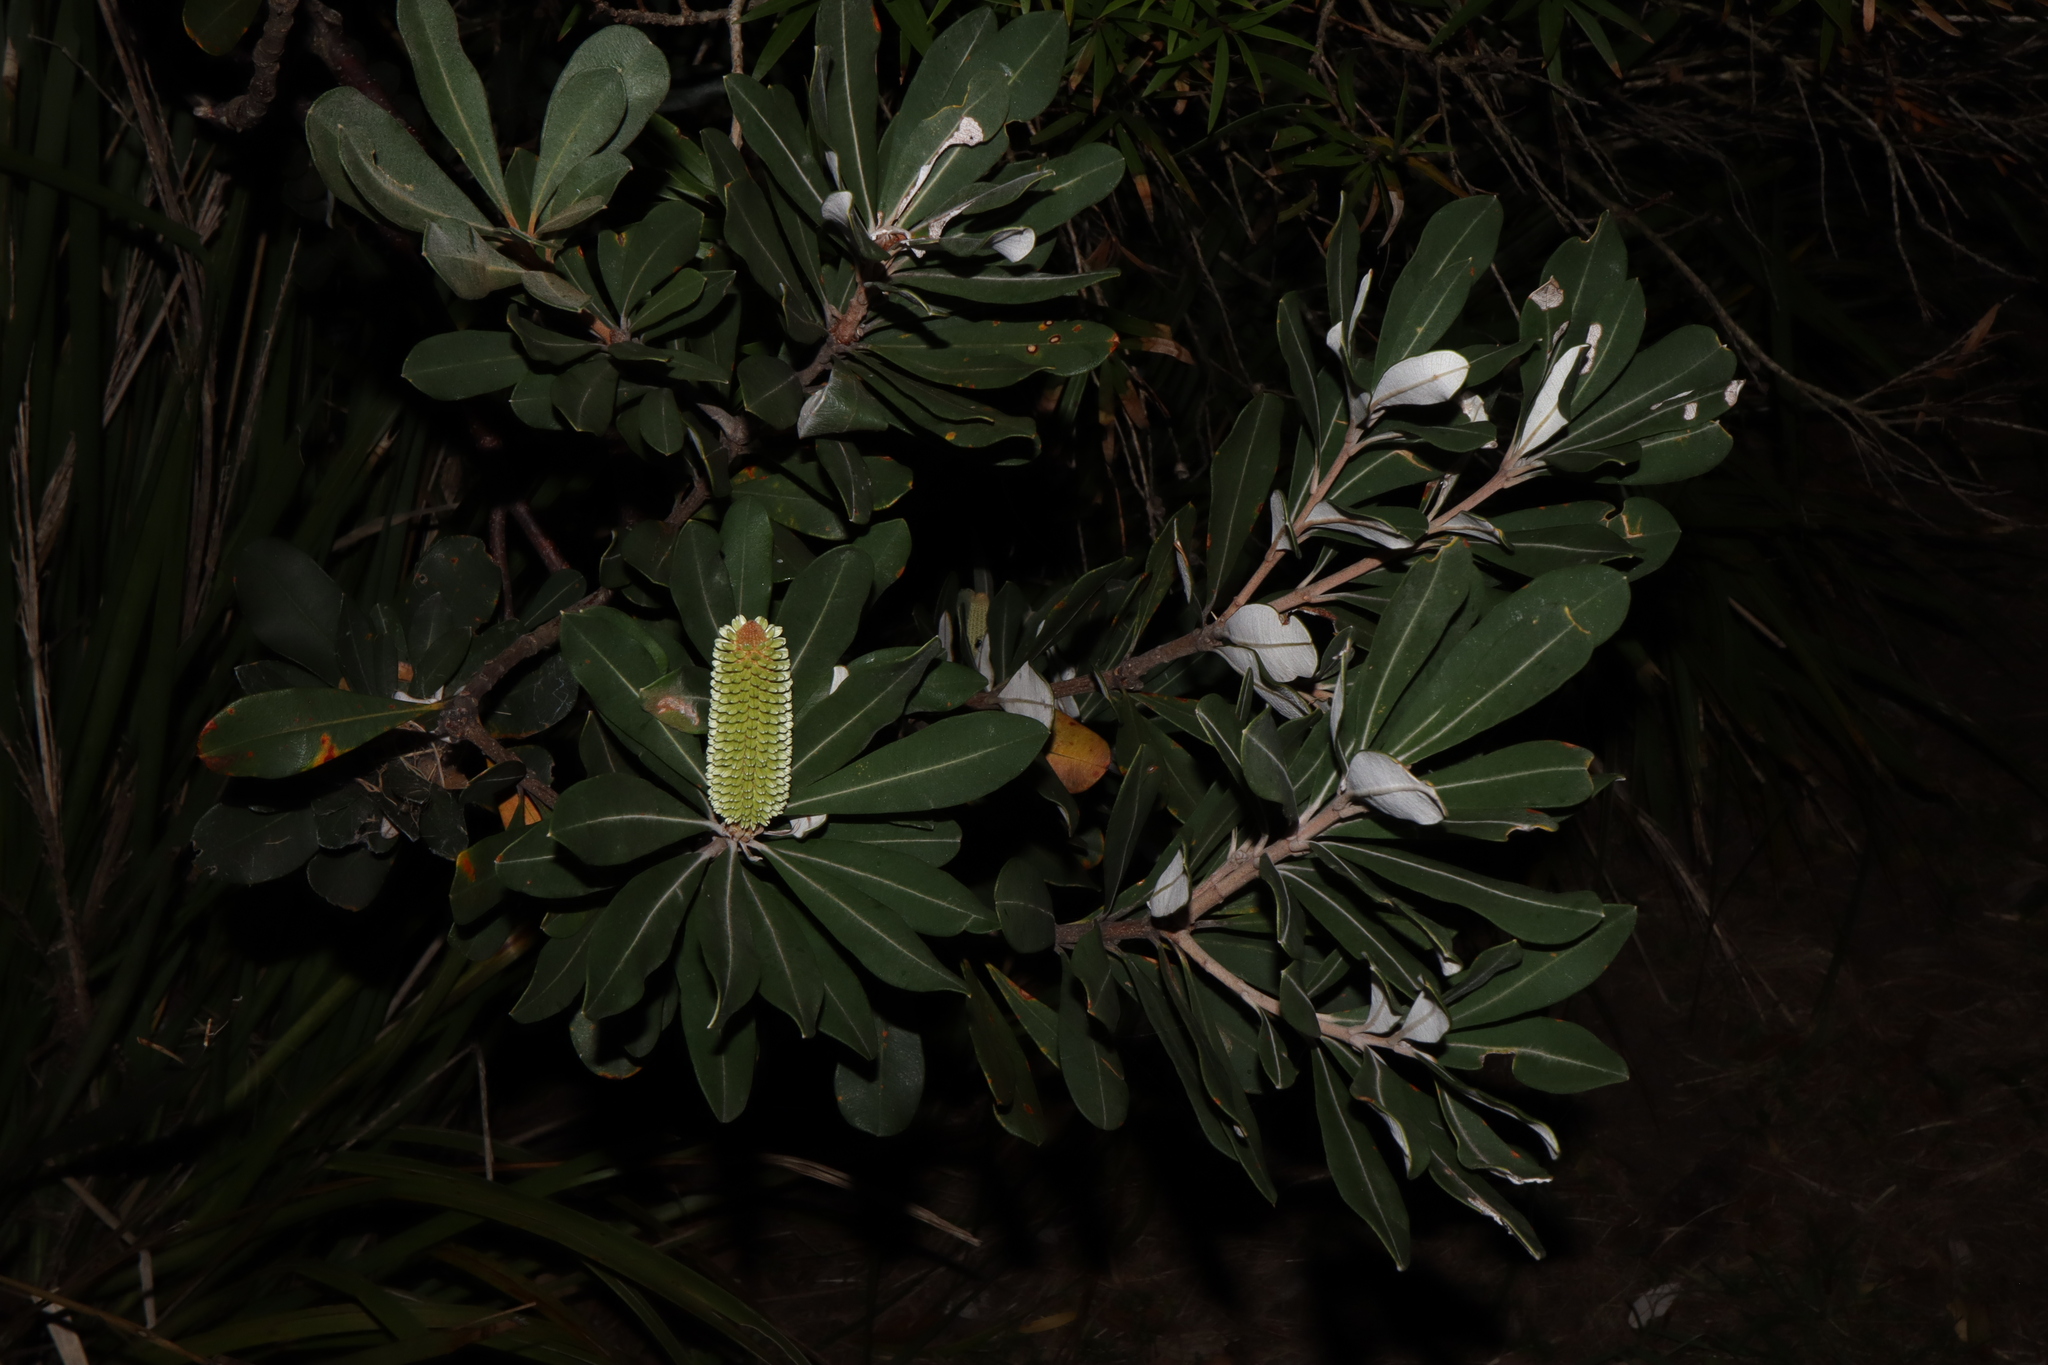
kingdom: Plantae
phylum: Tracheophyta
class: Magnoliopsida
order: Proteales
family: Proteaceae
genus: Banksia
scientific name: Banksia integrifolia
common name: White-honeysuckle
